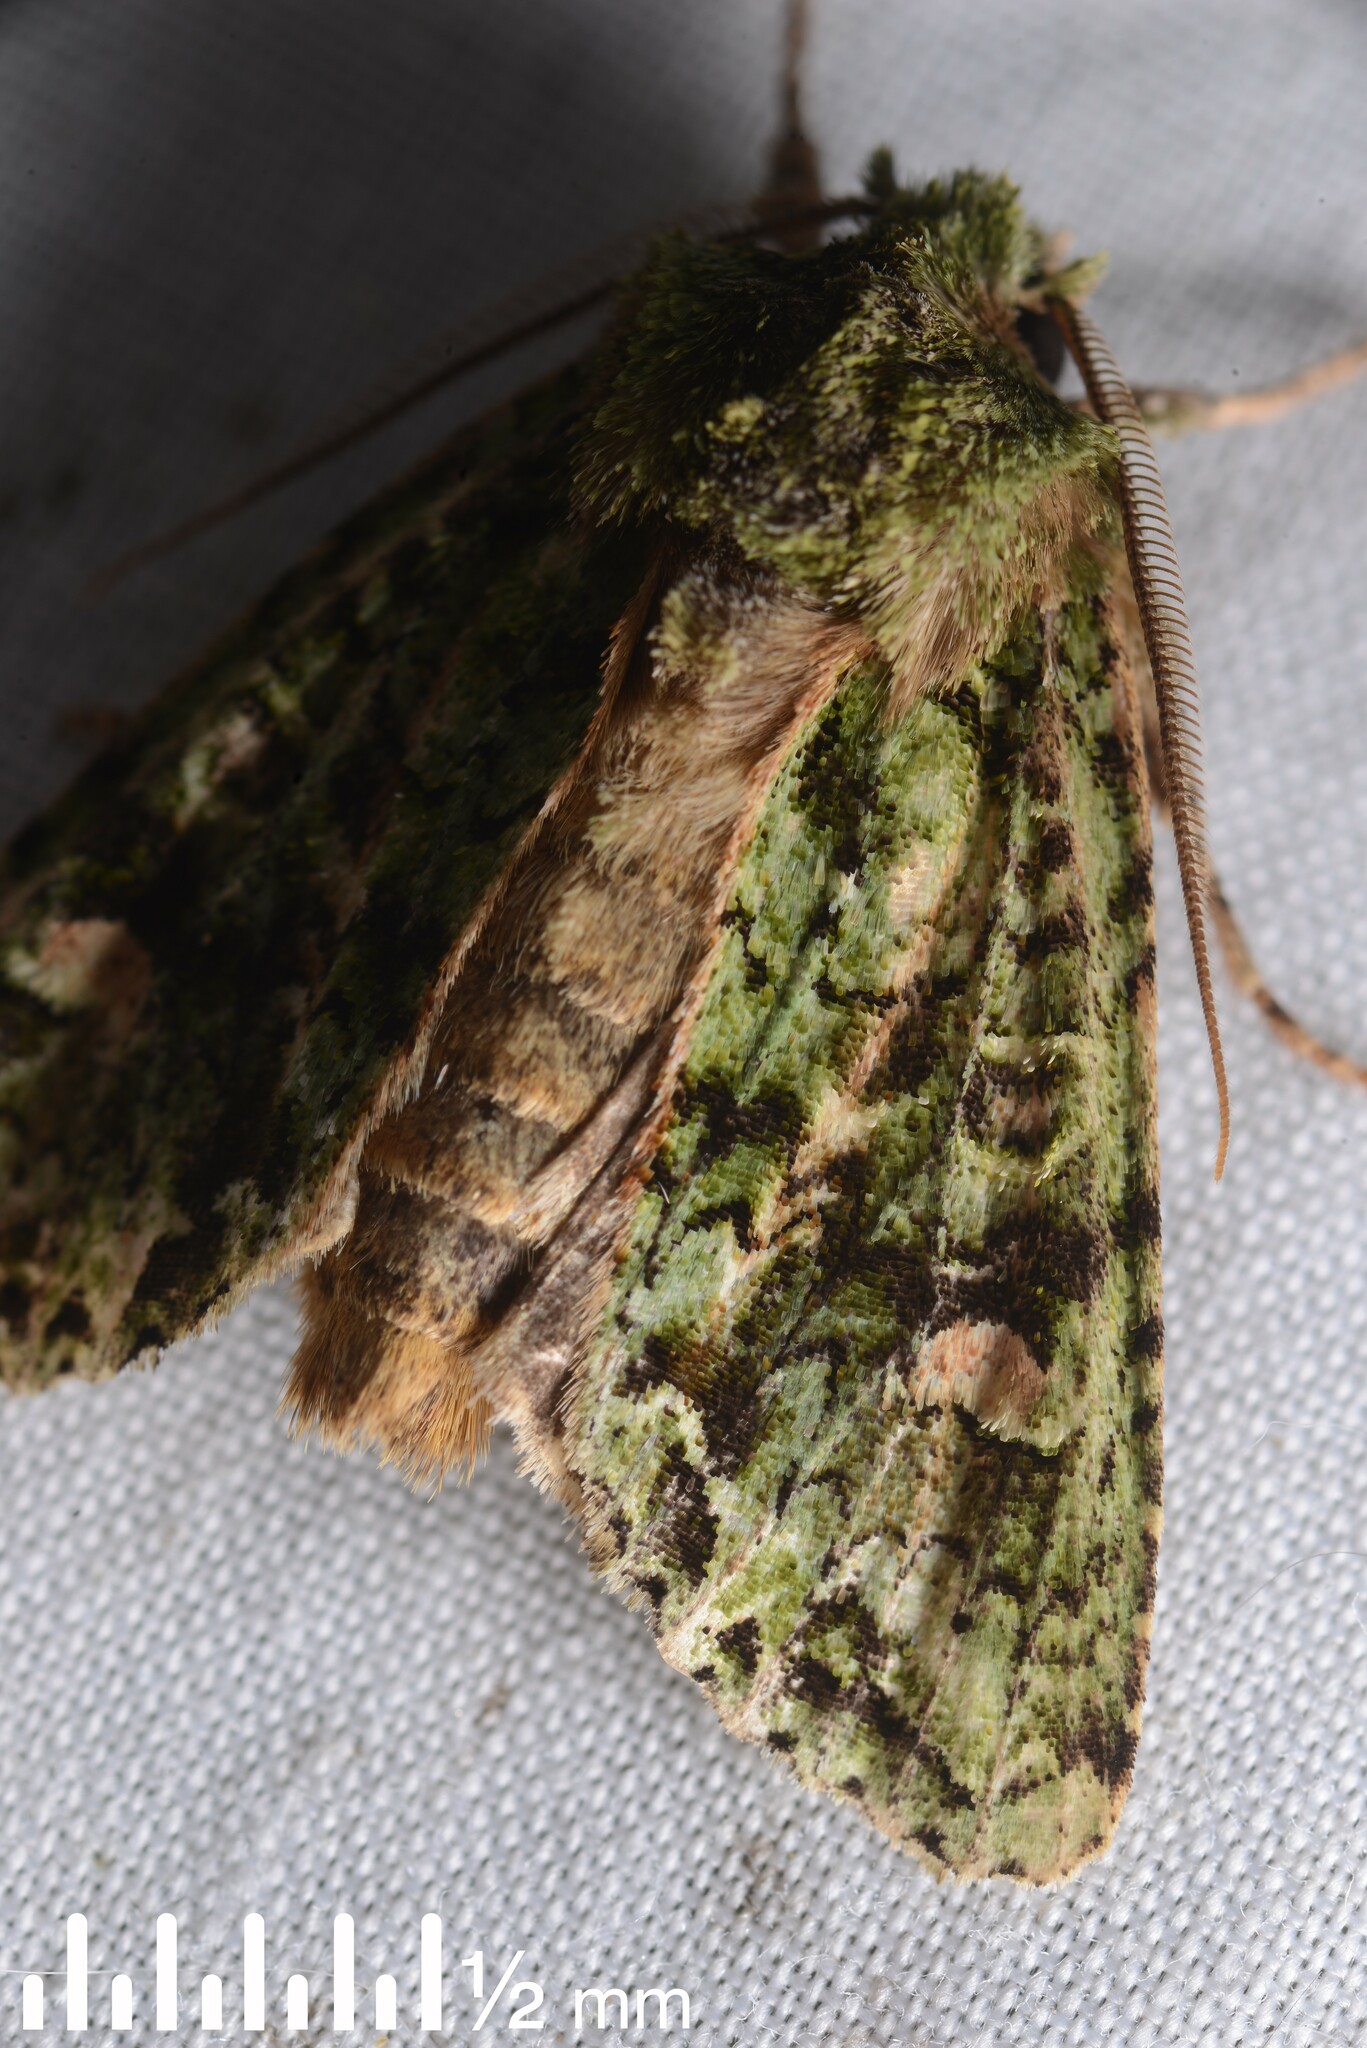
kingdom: Animalia
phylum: Arthropoda
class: Insecta
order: Lepidoptera
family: Noctuidae
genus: Ichneutica
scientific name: Ichneutica
